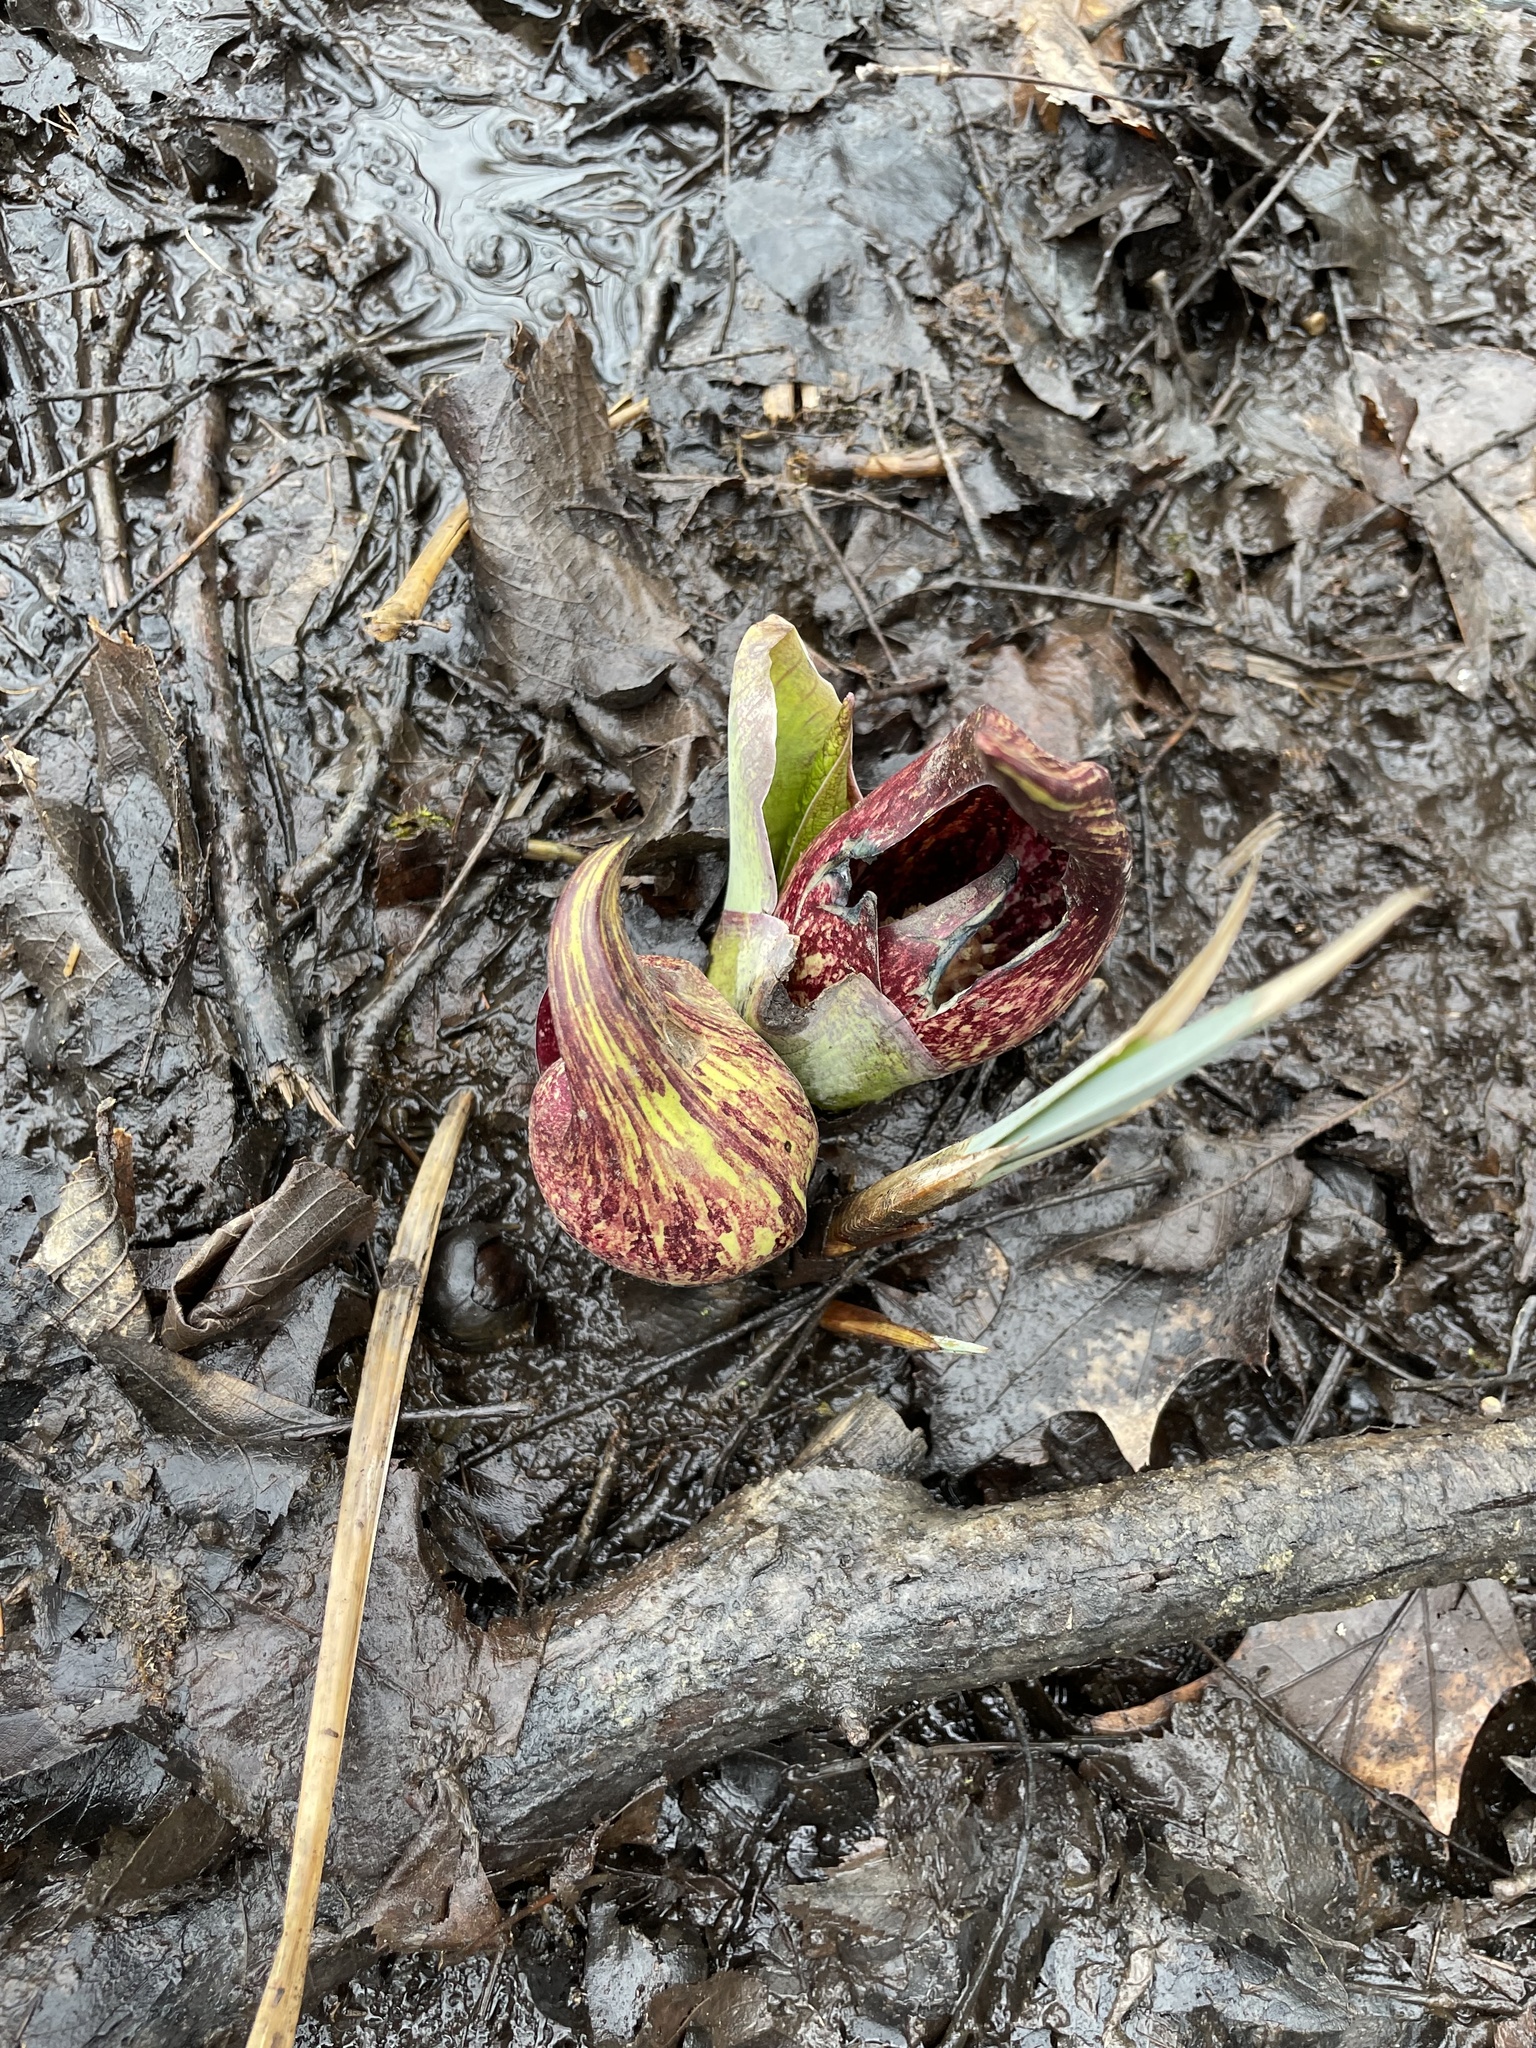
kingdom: Plantae
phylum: Tracheophyta
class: Liliopsida
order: Alismatales
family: Araceae
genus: Symplocarpus
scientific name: Symplocarpus foetidus
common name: Eastern skunk cabbage
